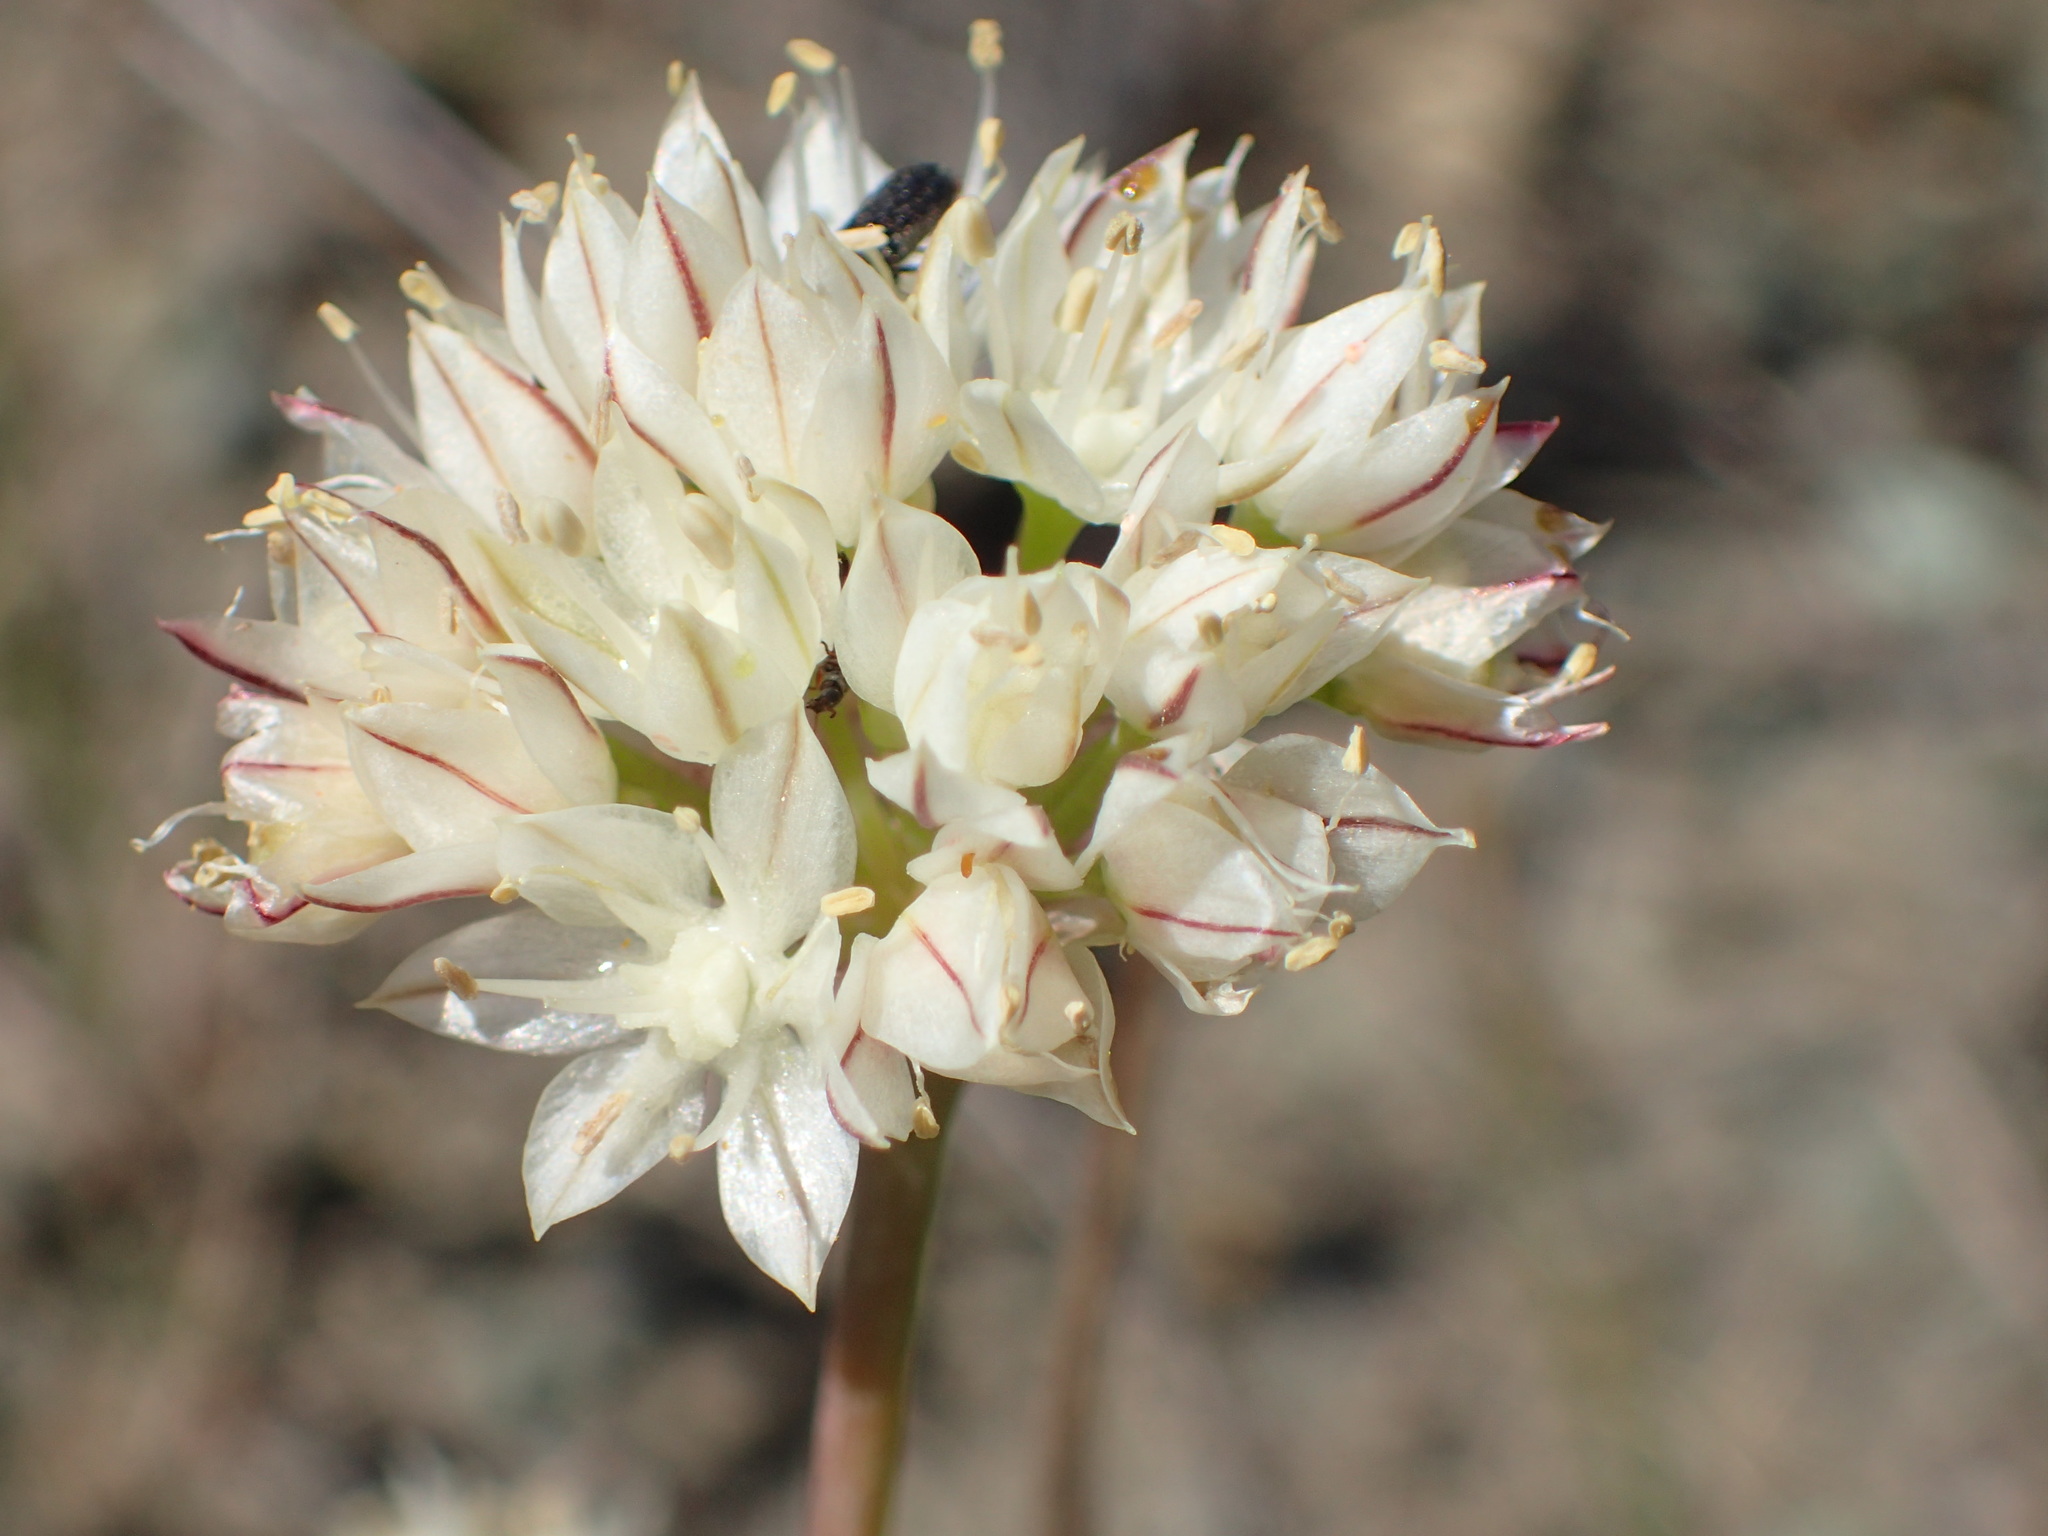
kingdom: Plantae
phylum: Tracheophyta
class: Liliopsida
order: Asparagales
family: Amaryllidaceae
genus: Allium
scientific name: Allium haematochiton
